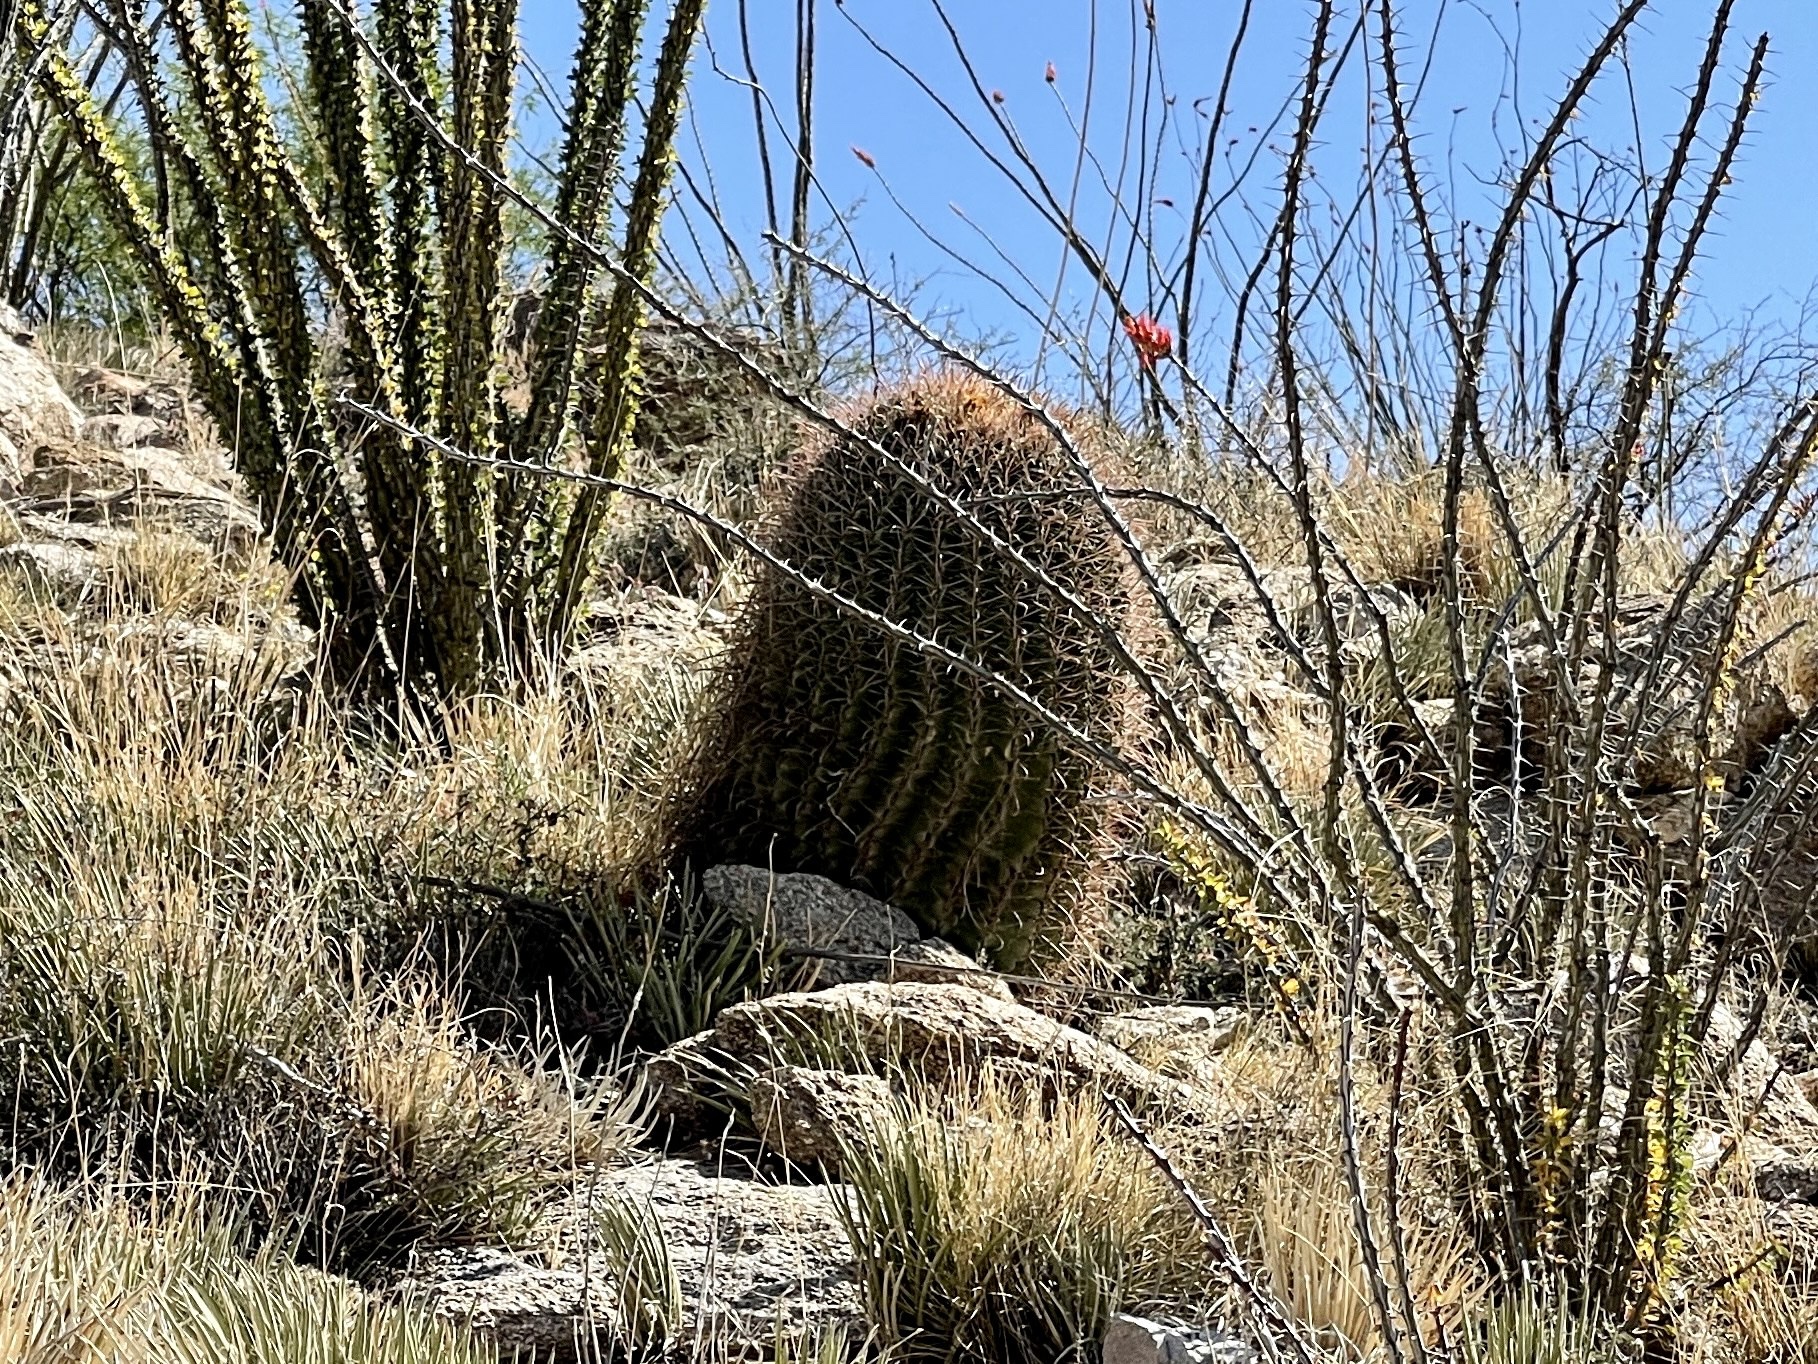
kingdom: Plantae
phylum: Tracheophyta
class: Magnoliopsida
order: Caryophyllales
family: Cactaceae
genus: Ferocactus
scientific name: Ferocactus wislizeni
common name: Candy barrel cactus
